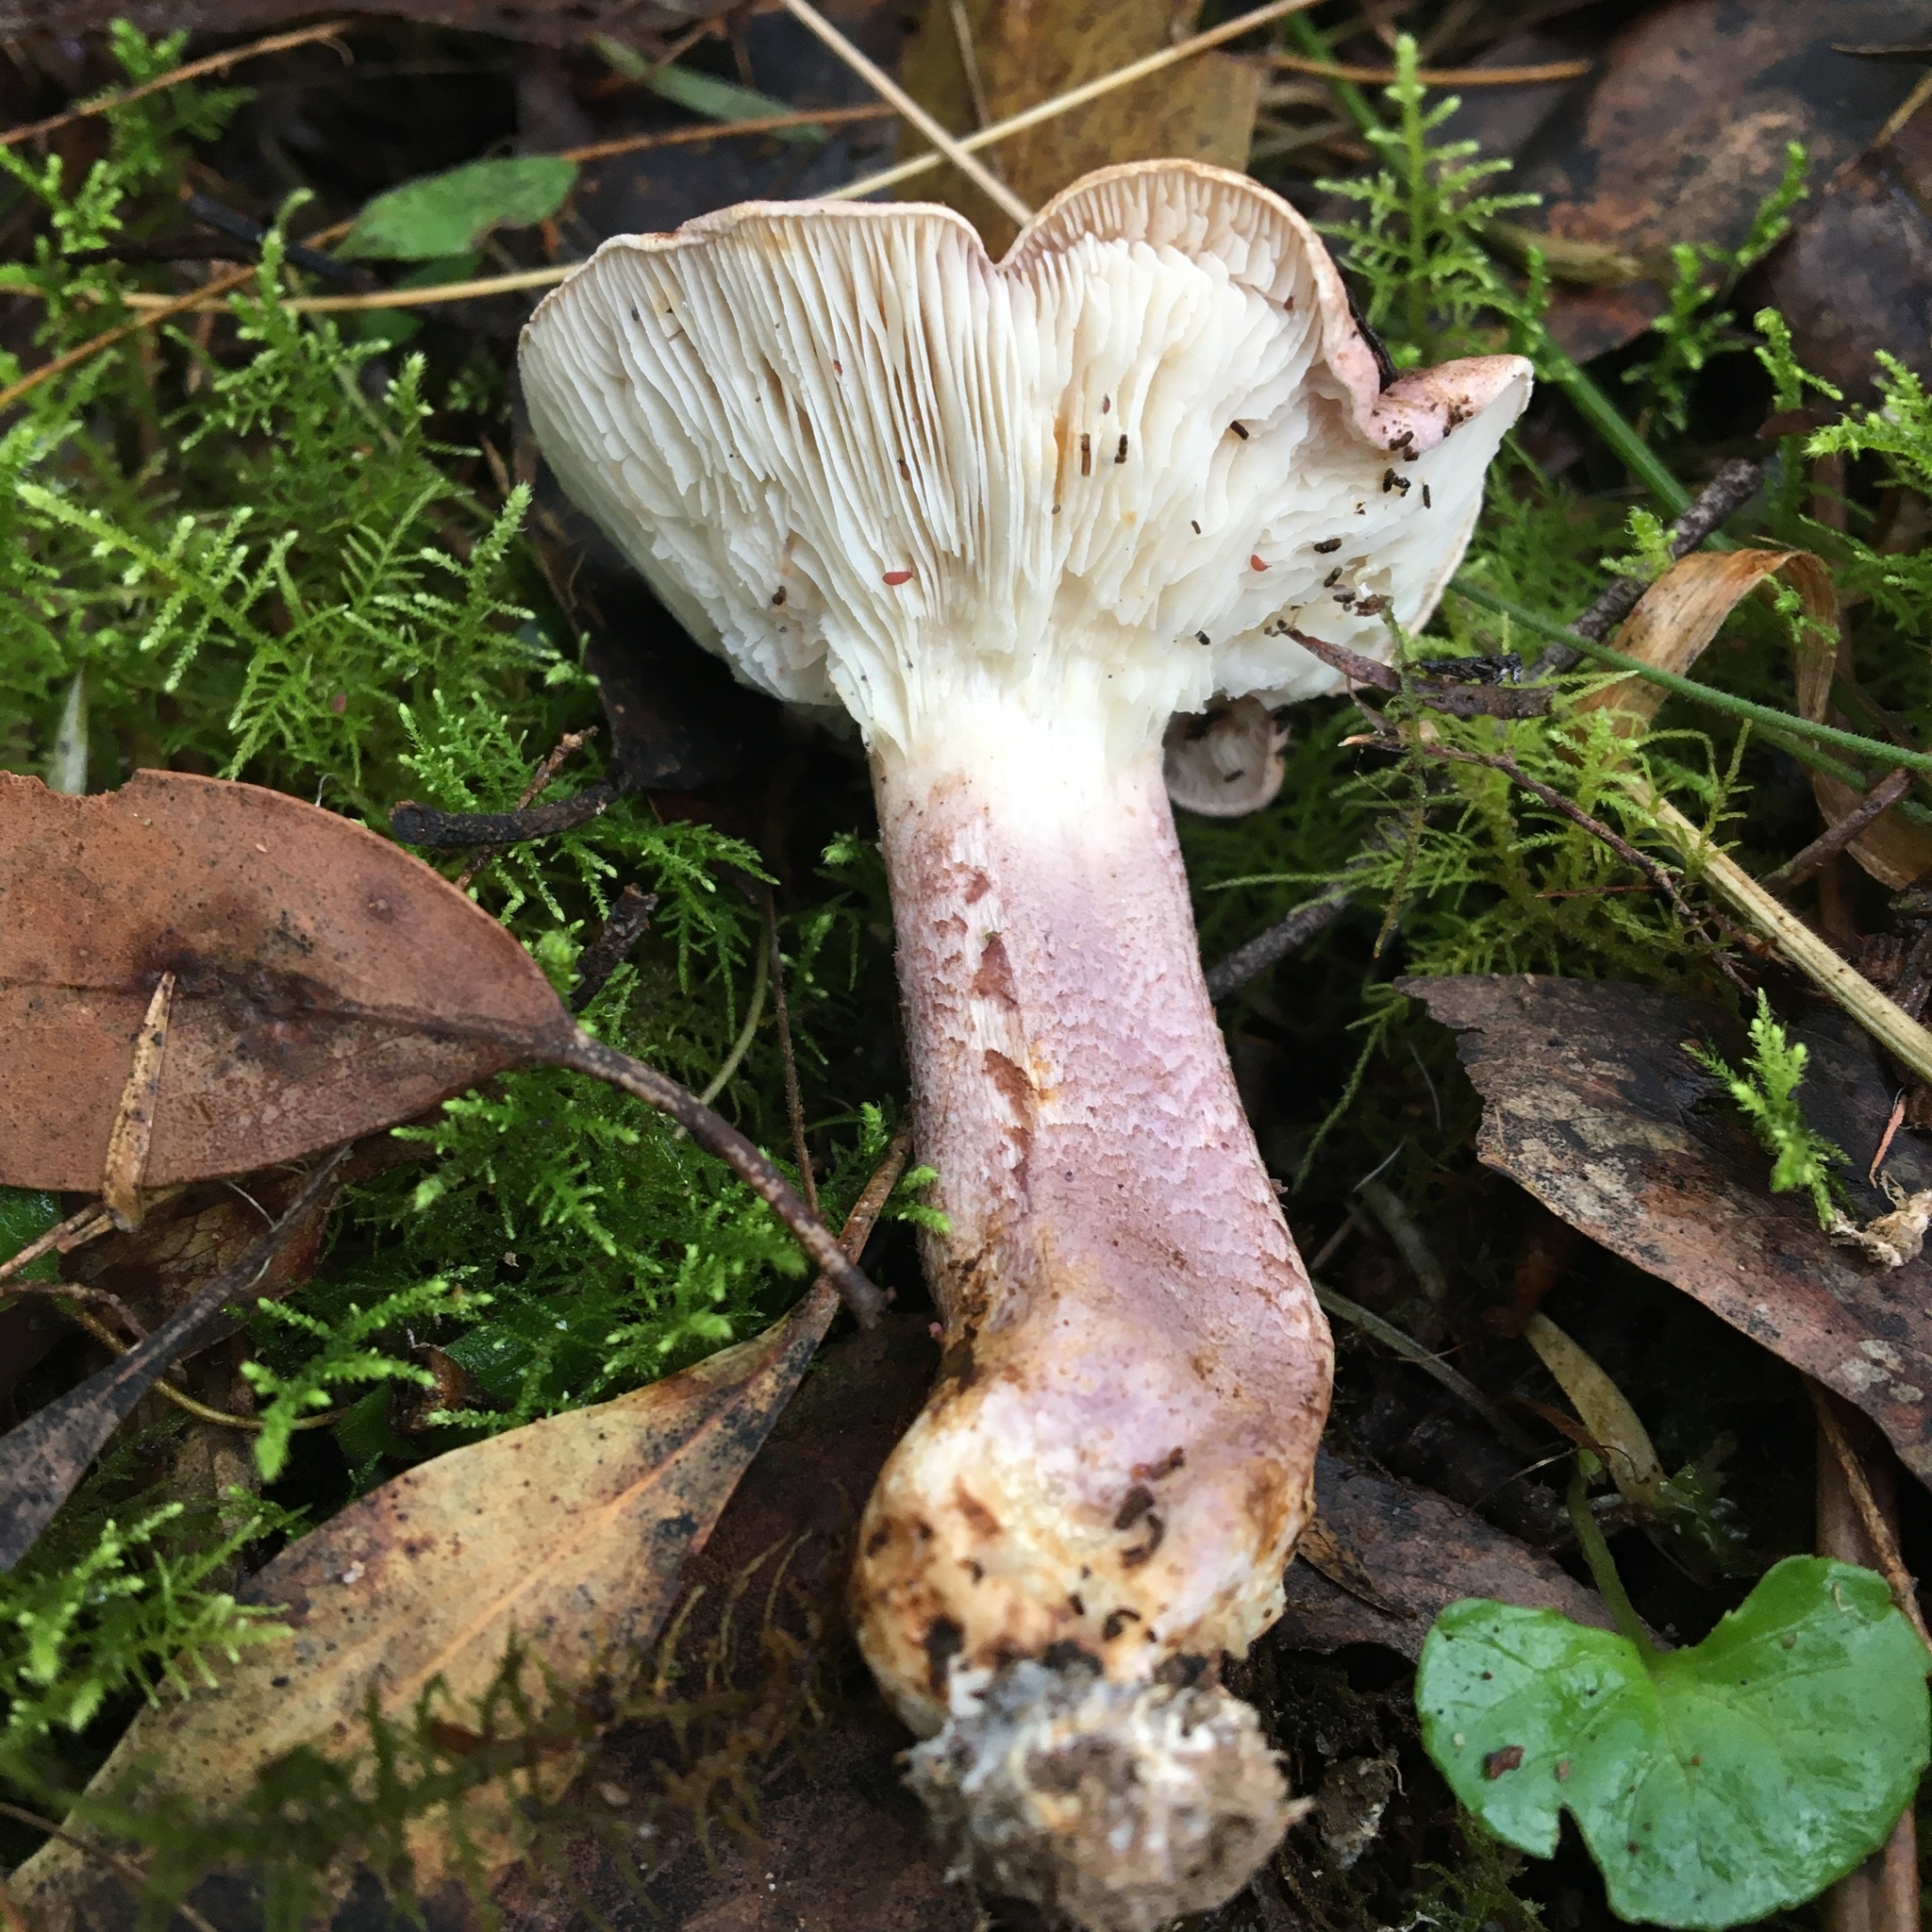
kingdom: Fungi
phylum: Basidiomycota
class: Agaricomycetes
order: Agaricales
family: Tricholomataceae
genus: Leucopaxillus
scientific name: Leucopaxillus lilacinus
